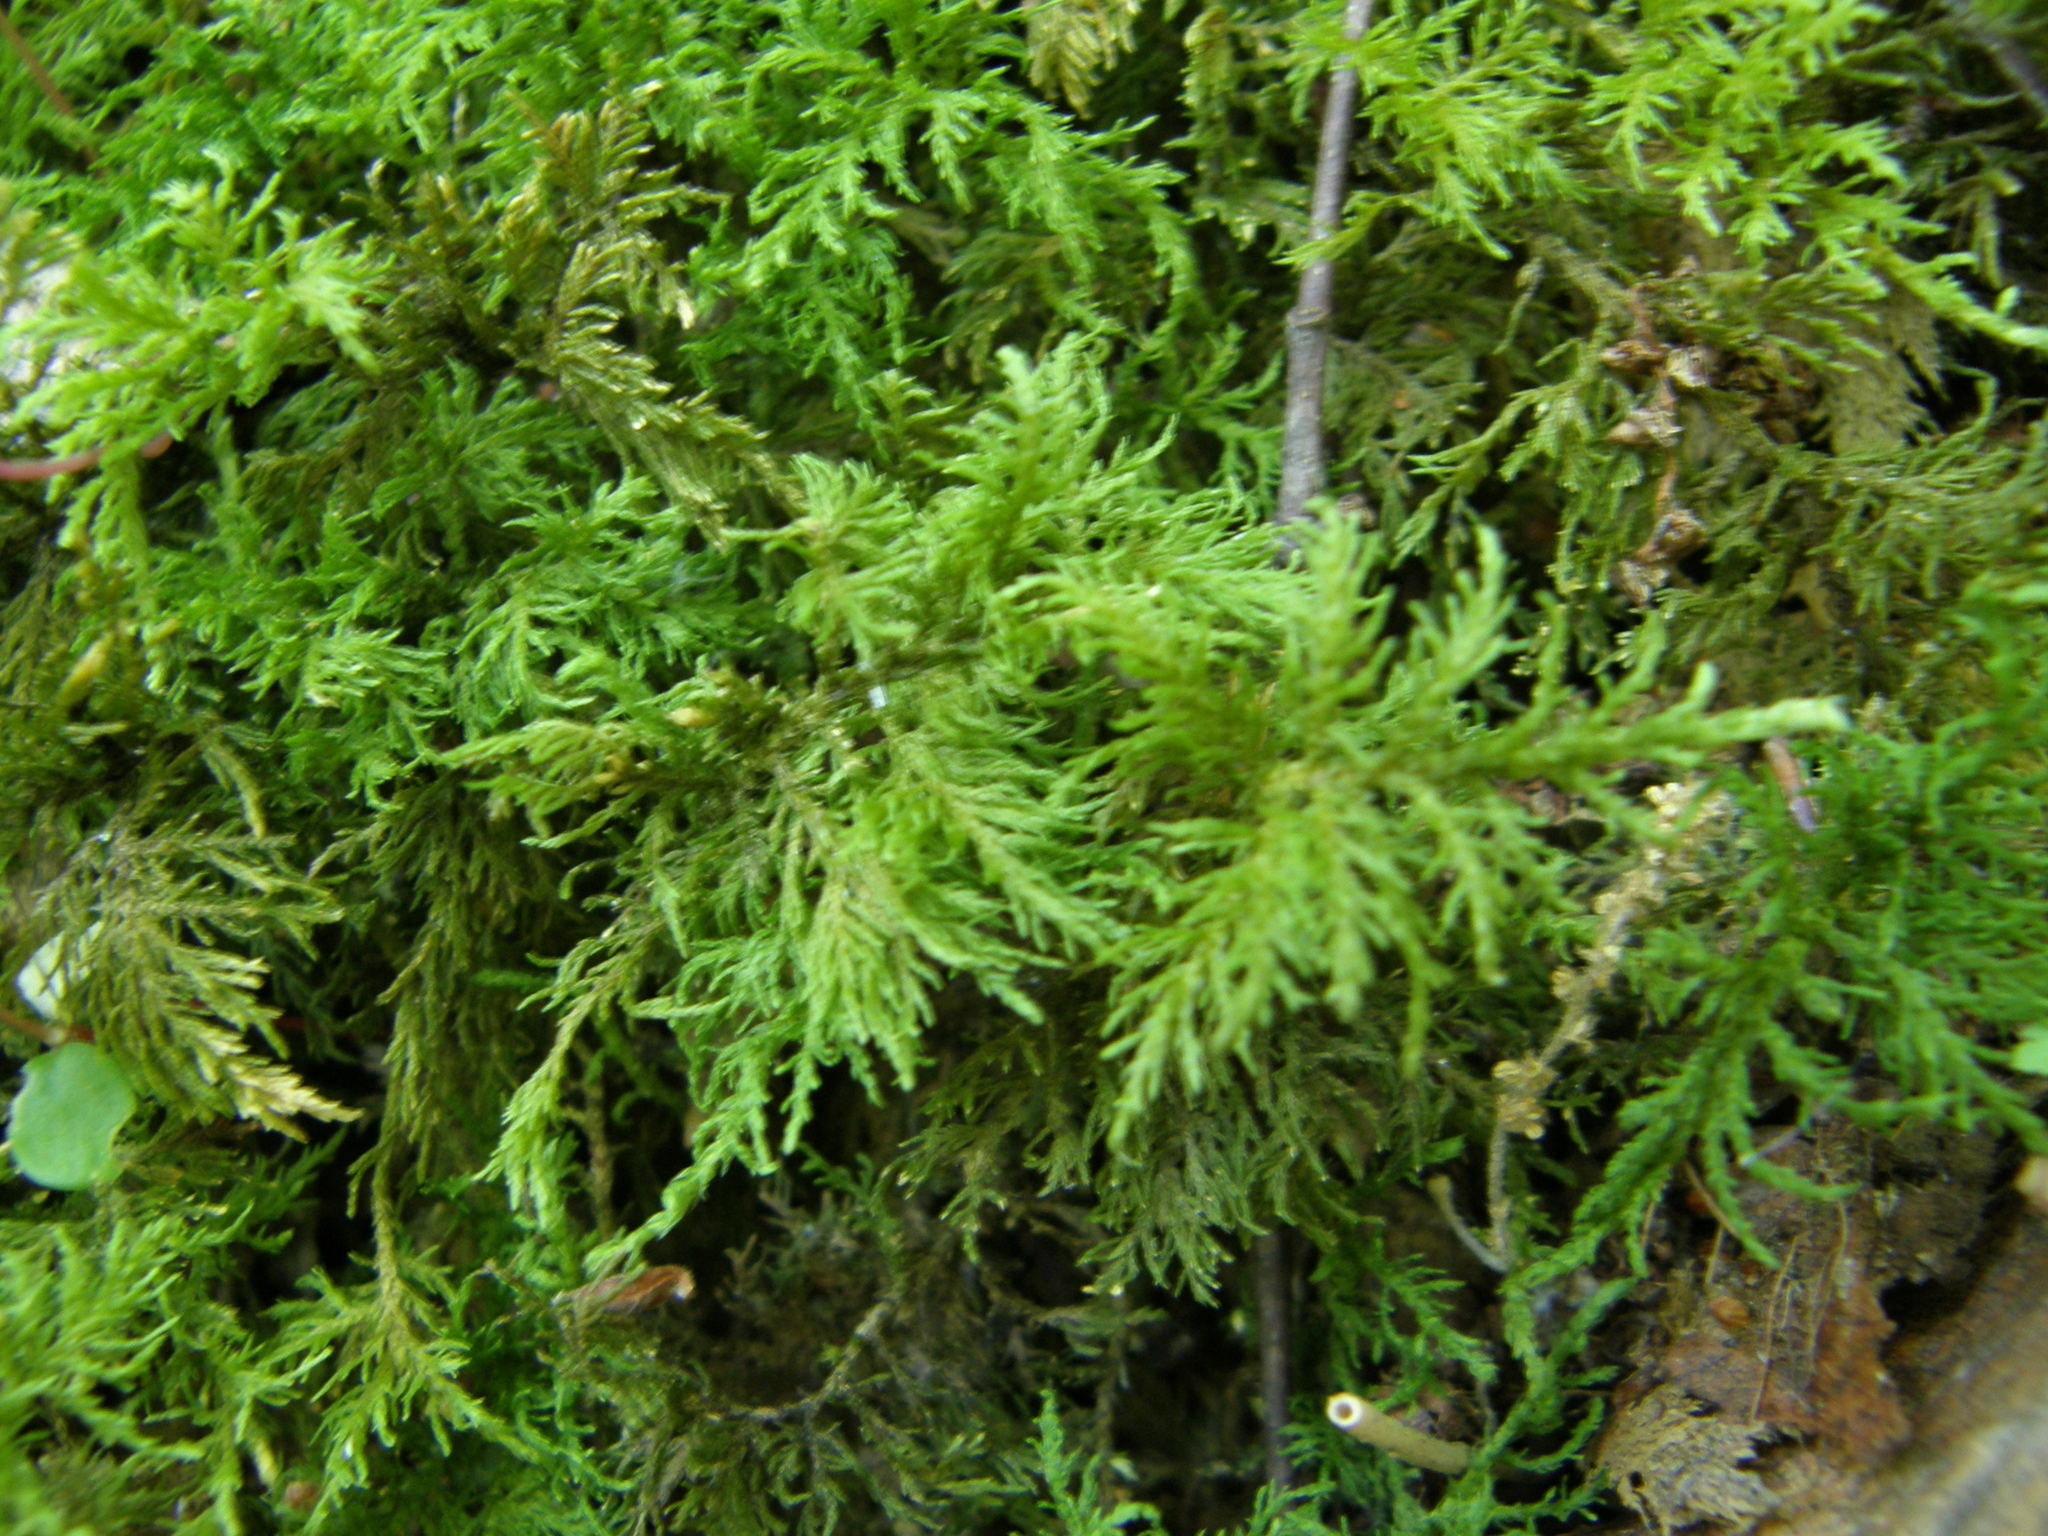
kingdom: Plantae
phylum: Bryophyta
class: Bryopsida
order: Hypnales
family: Thuidiaceae
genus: Thuidium
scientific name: Thuidium tamariscinum
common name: Common tamarisk-moss
